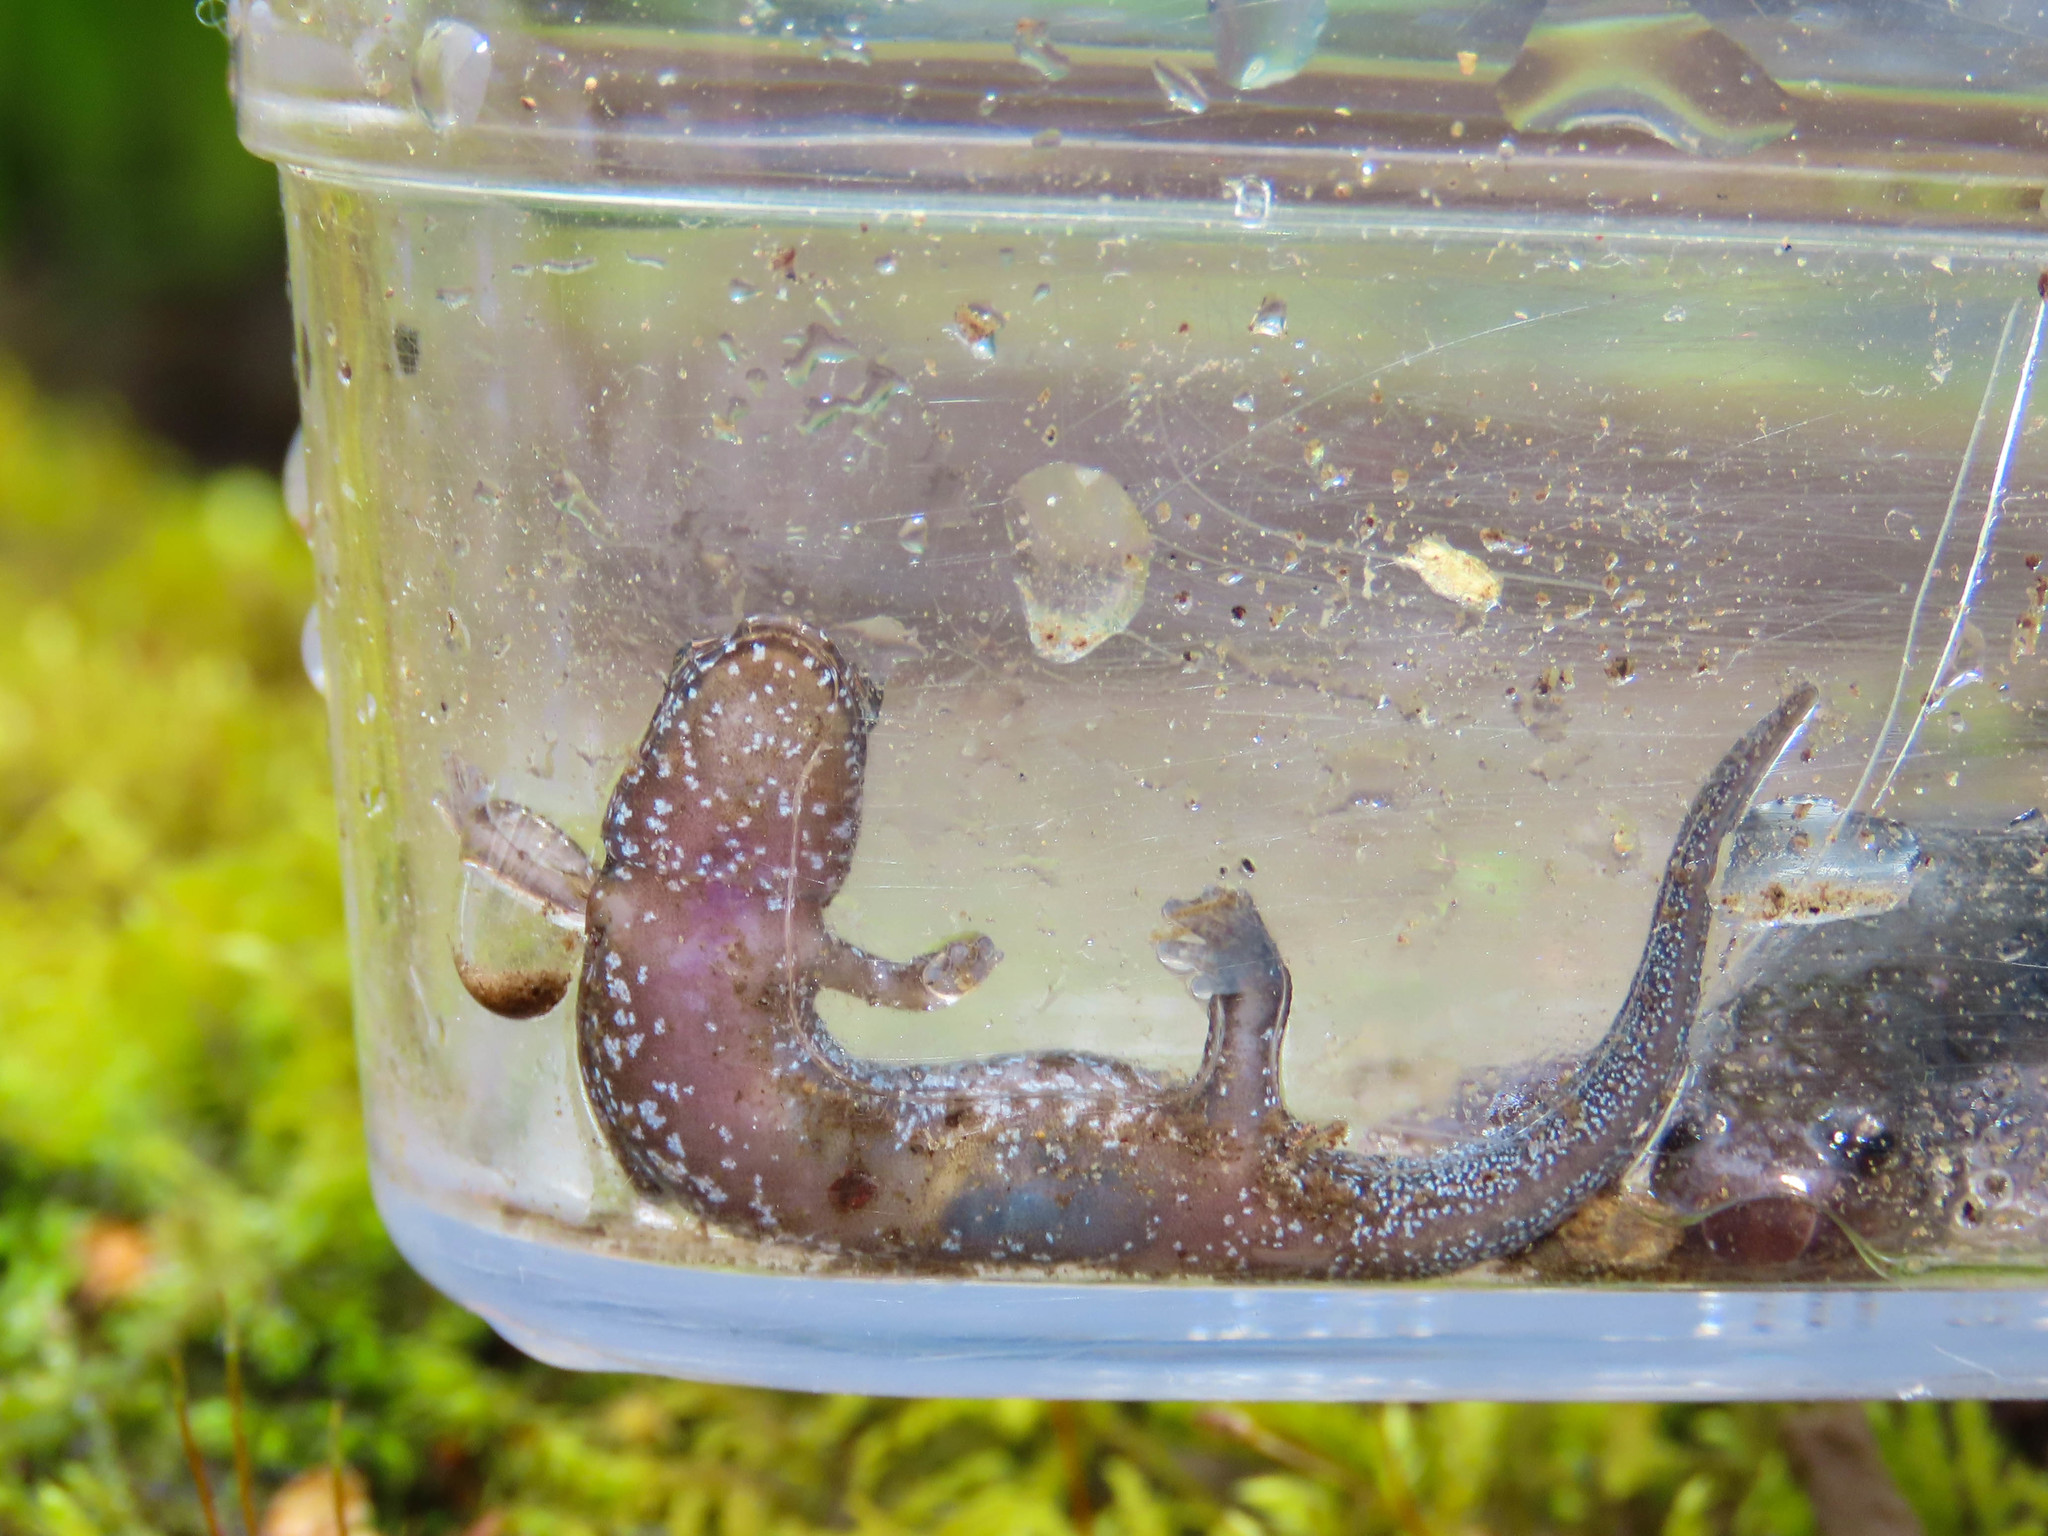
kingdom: Animalia
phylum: Chordata
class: Amphibia
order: Caudata
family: Plethodontidae
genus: Desmognathus
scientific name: Desmognathus ochrophaeus
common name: Allegheny mountain dusky salamander
